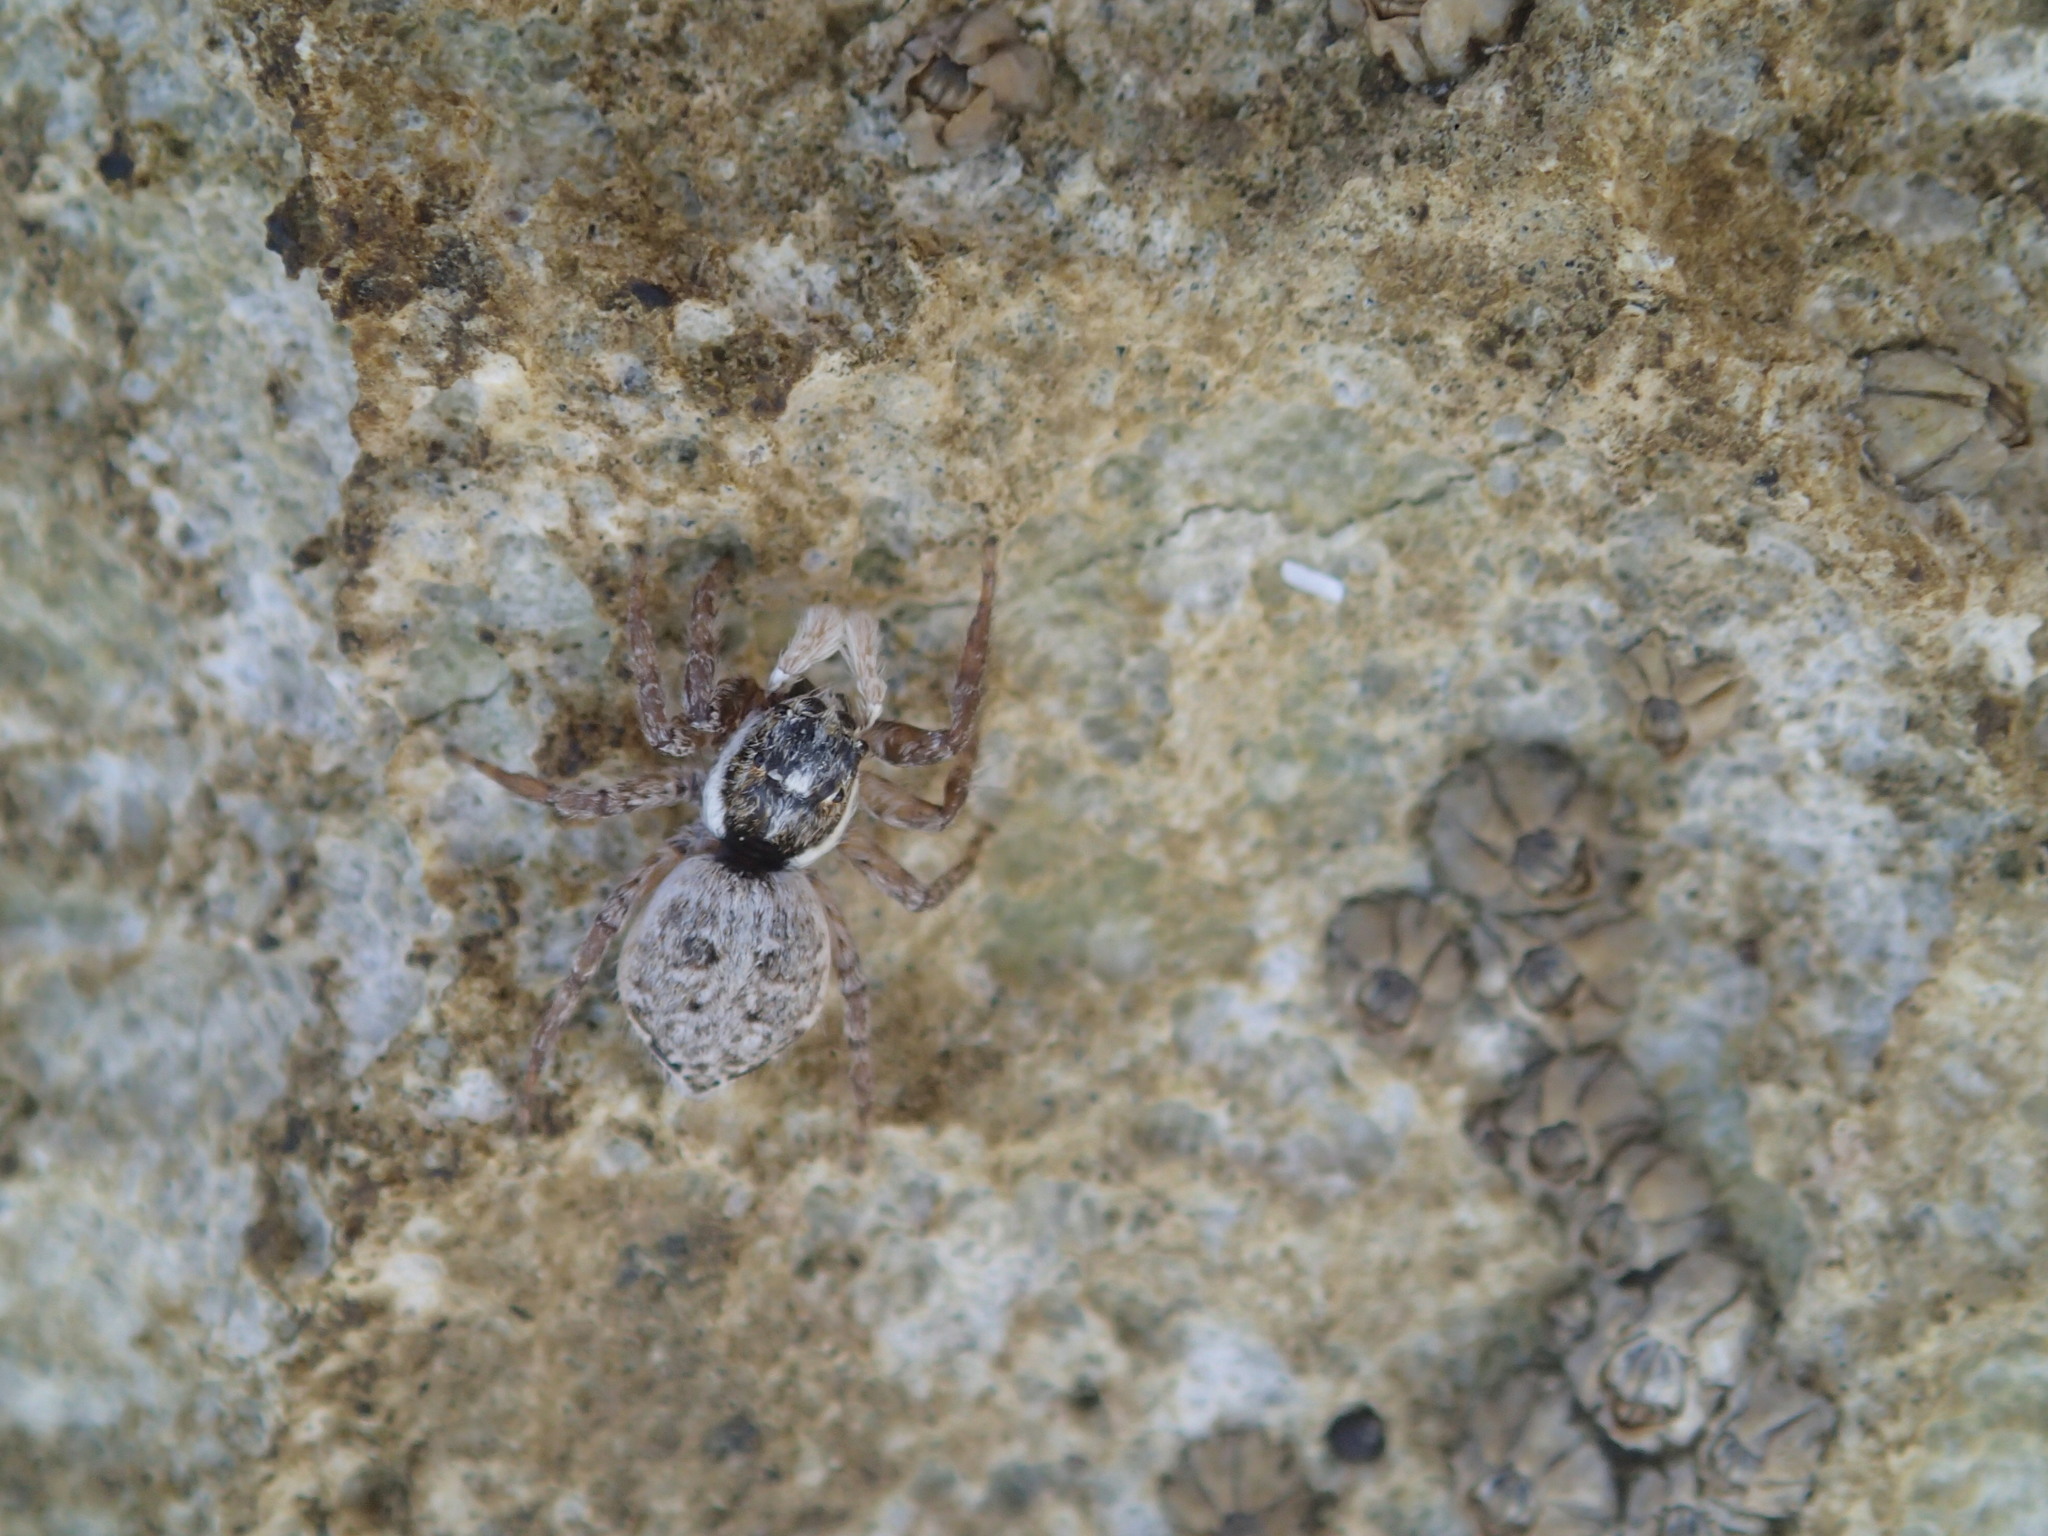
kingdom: Animalia
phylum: Arthropoda
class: Arachnida
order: Araneae
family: Salticidae
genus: Menemerus
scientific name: Menemerus semilimbatus
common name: Jumping spider
